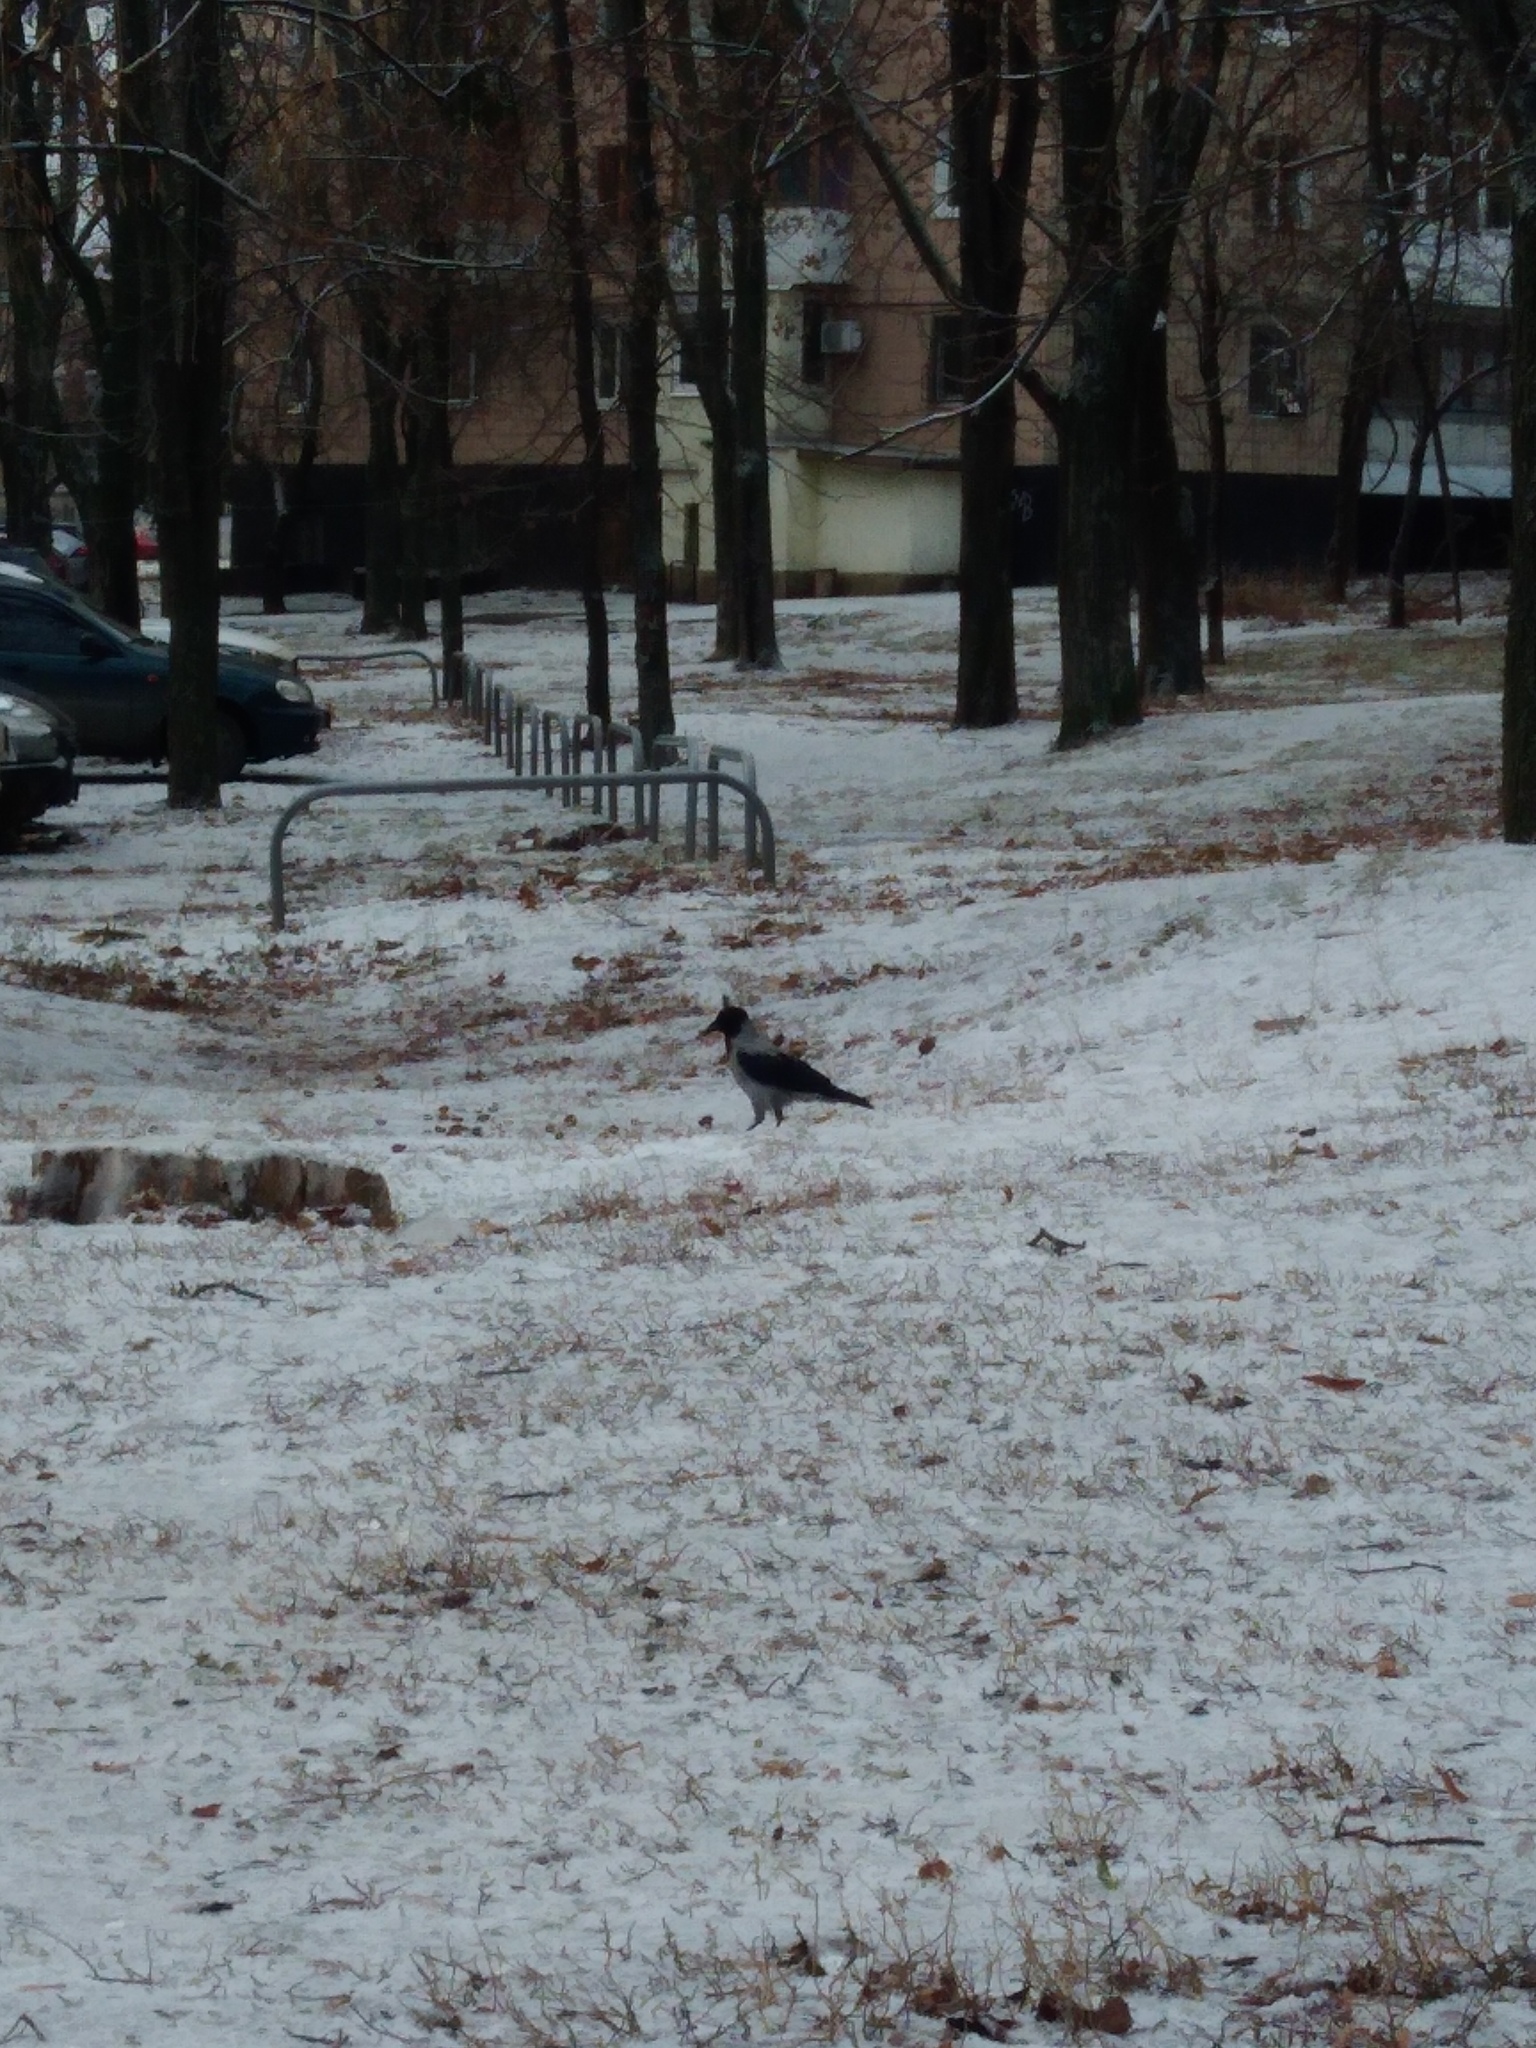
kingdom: Animalia
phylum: Chordata
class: Aves
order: Passeriformes
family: Corvidae
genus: Corvus
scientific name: Corvus cornix
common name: Hooded crow
